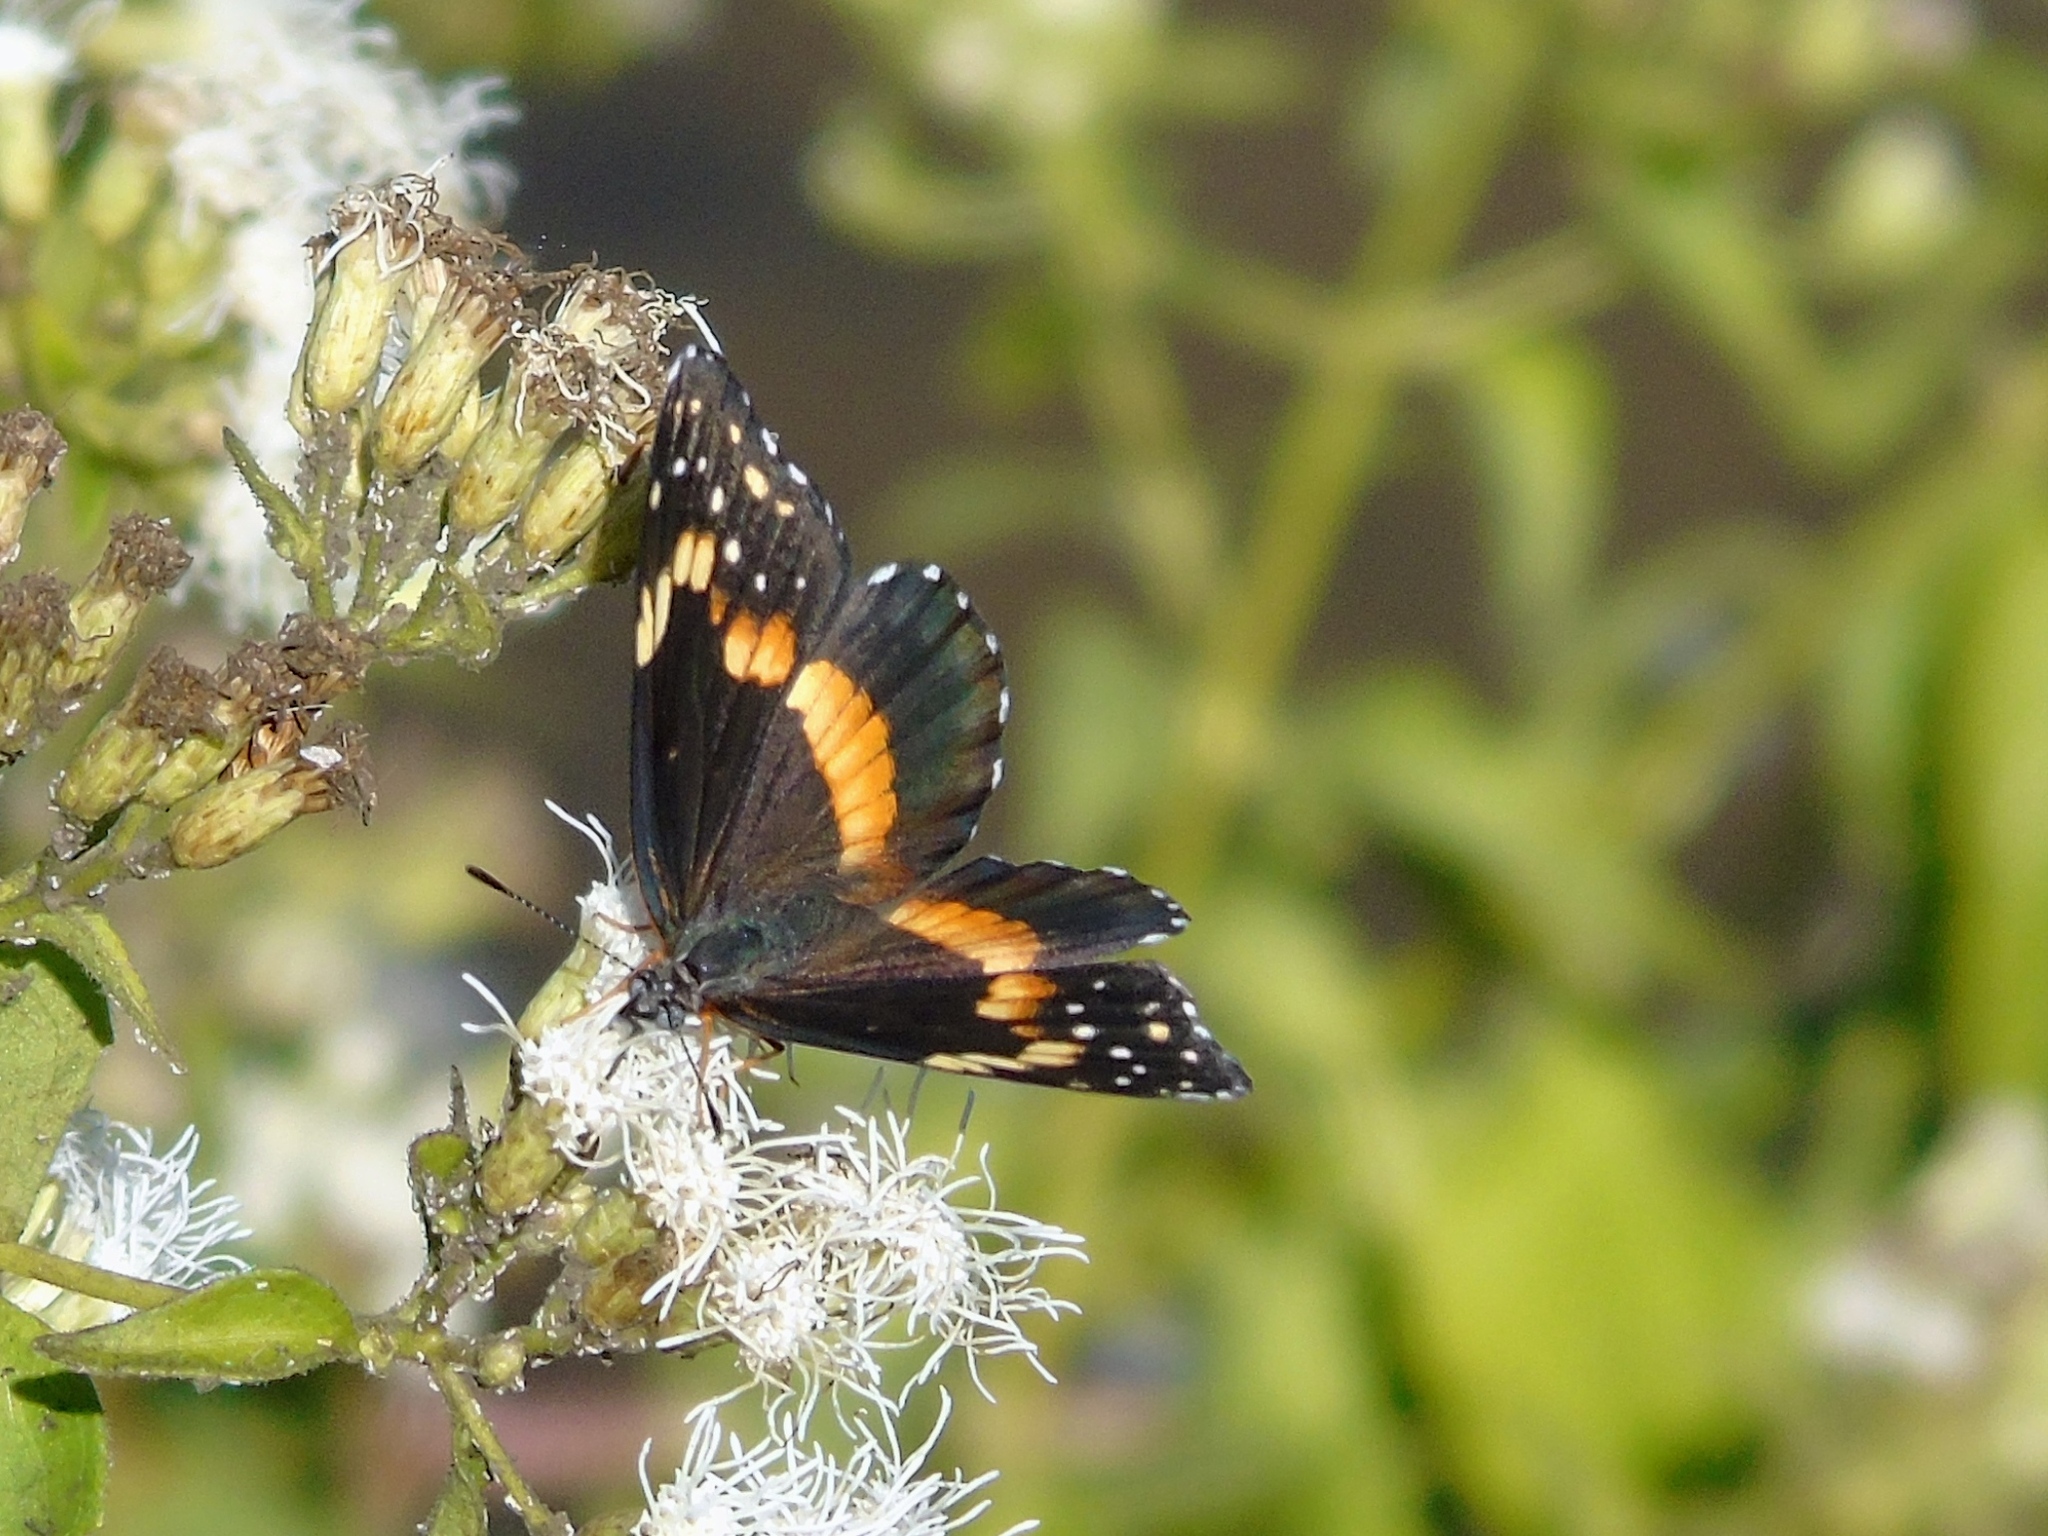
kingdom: Animalia
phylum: Arthropoda
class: Insecta
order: Lepidoptera
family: Nymphalidae
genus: Chlosyne
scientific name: Chlosyne lacinia
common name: Bordered patch
